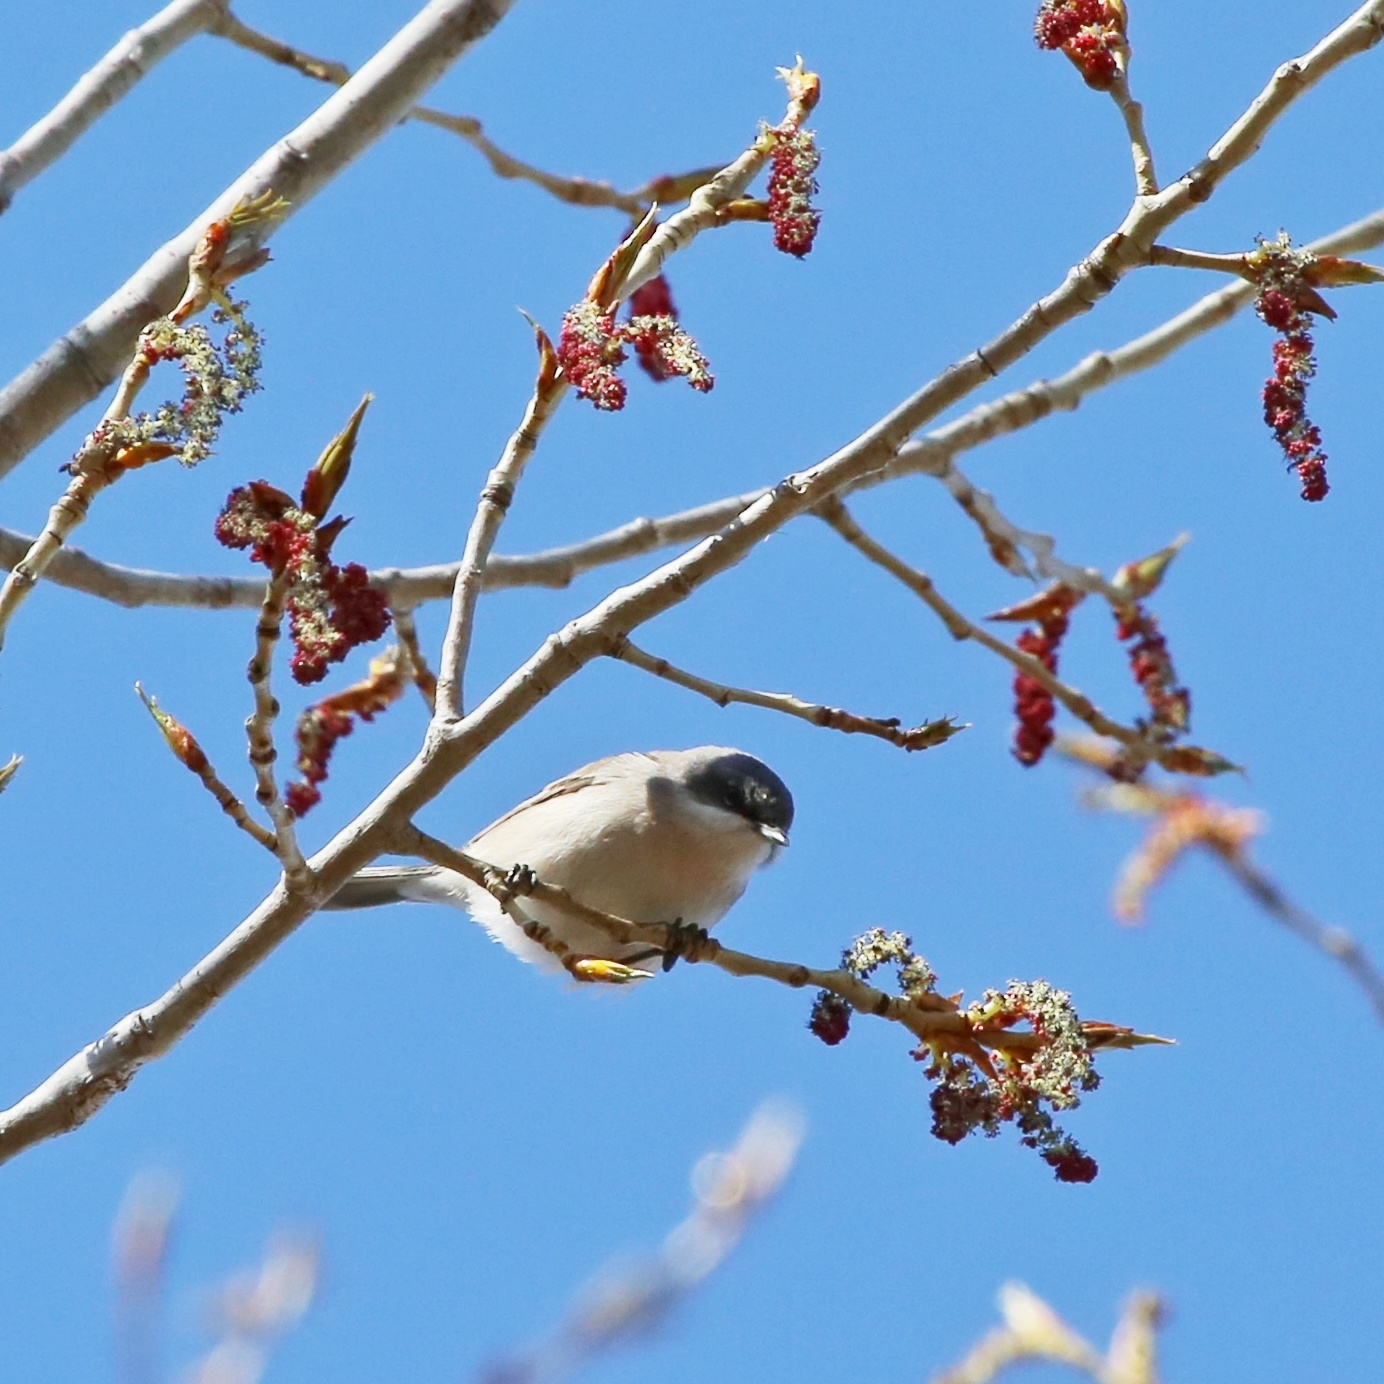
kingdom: Animalia
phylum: Chordata
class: Aves
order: Passeriformes
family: Sylviidae
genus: Sylvia
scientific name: Sylvia curruca
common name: Lesser whitethroat
